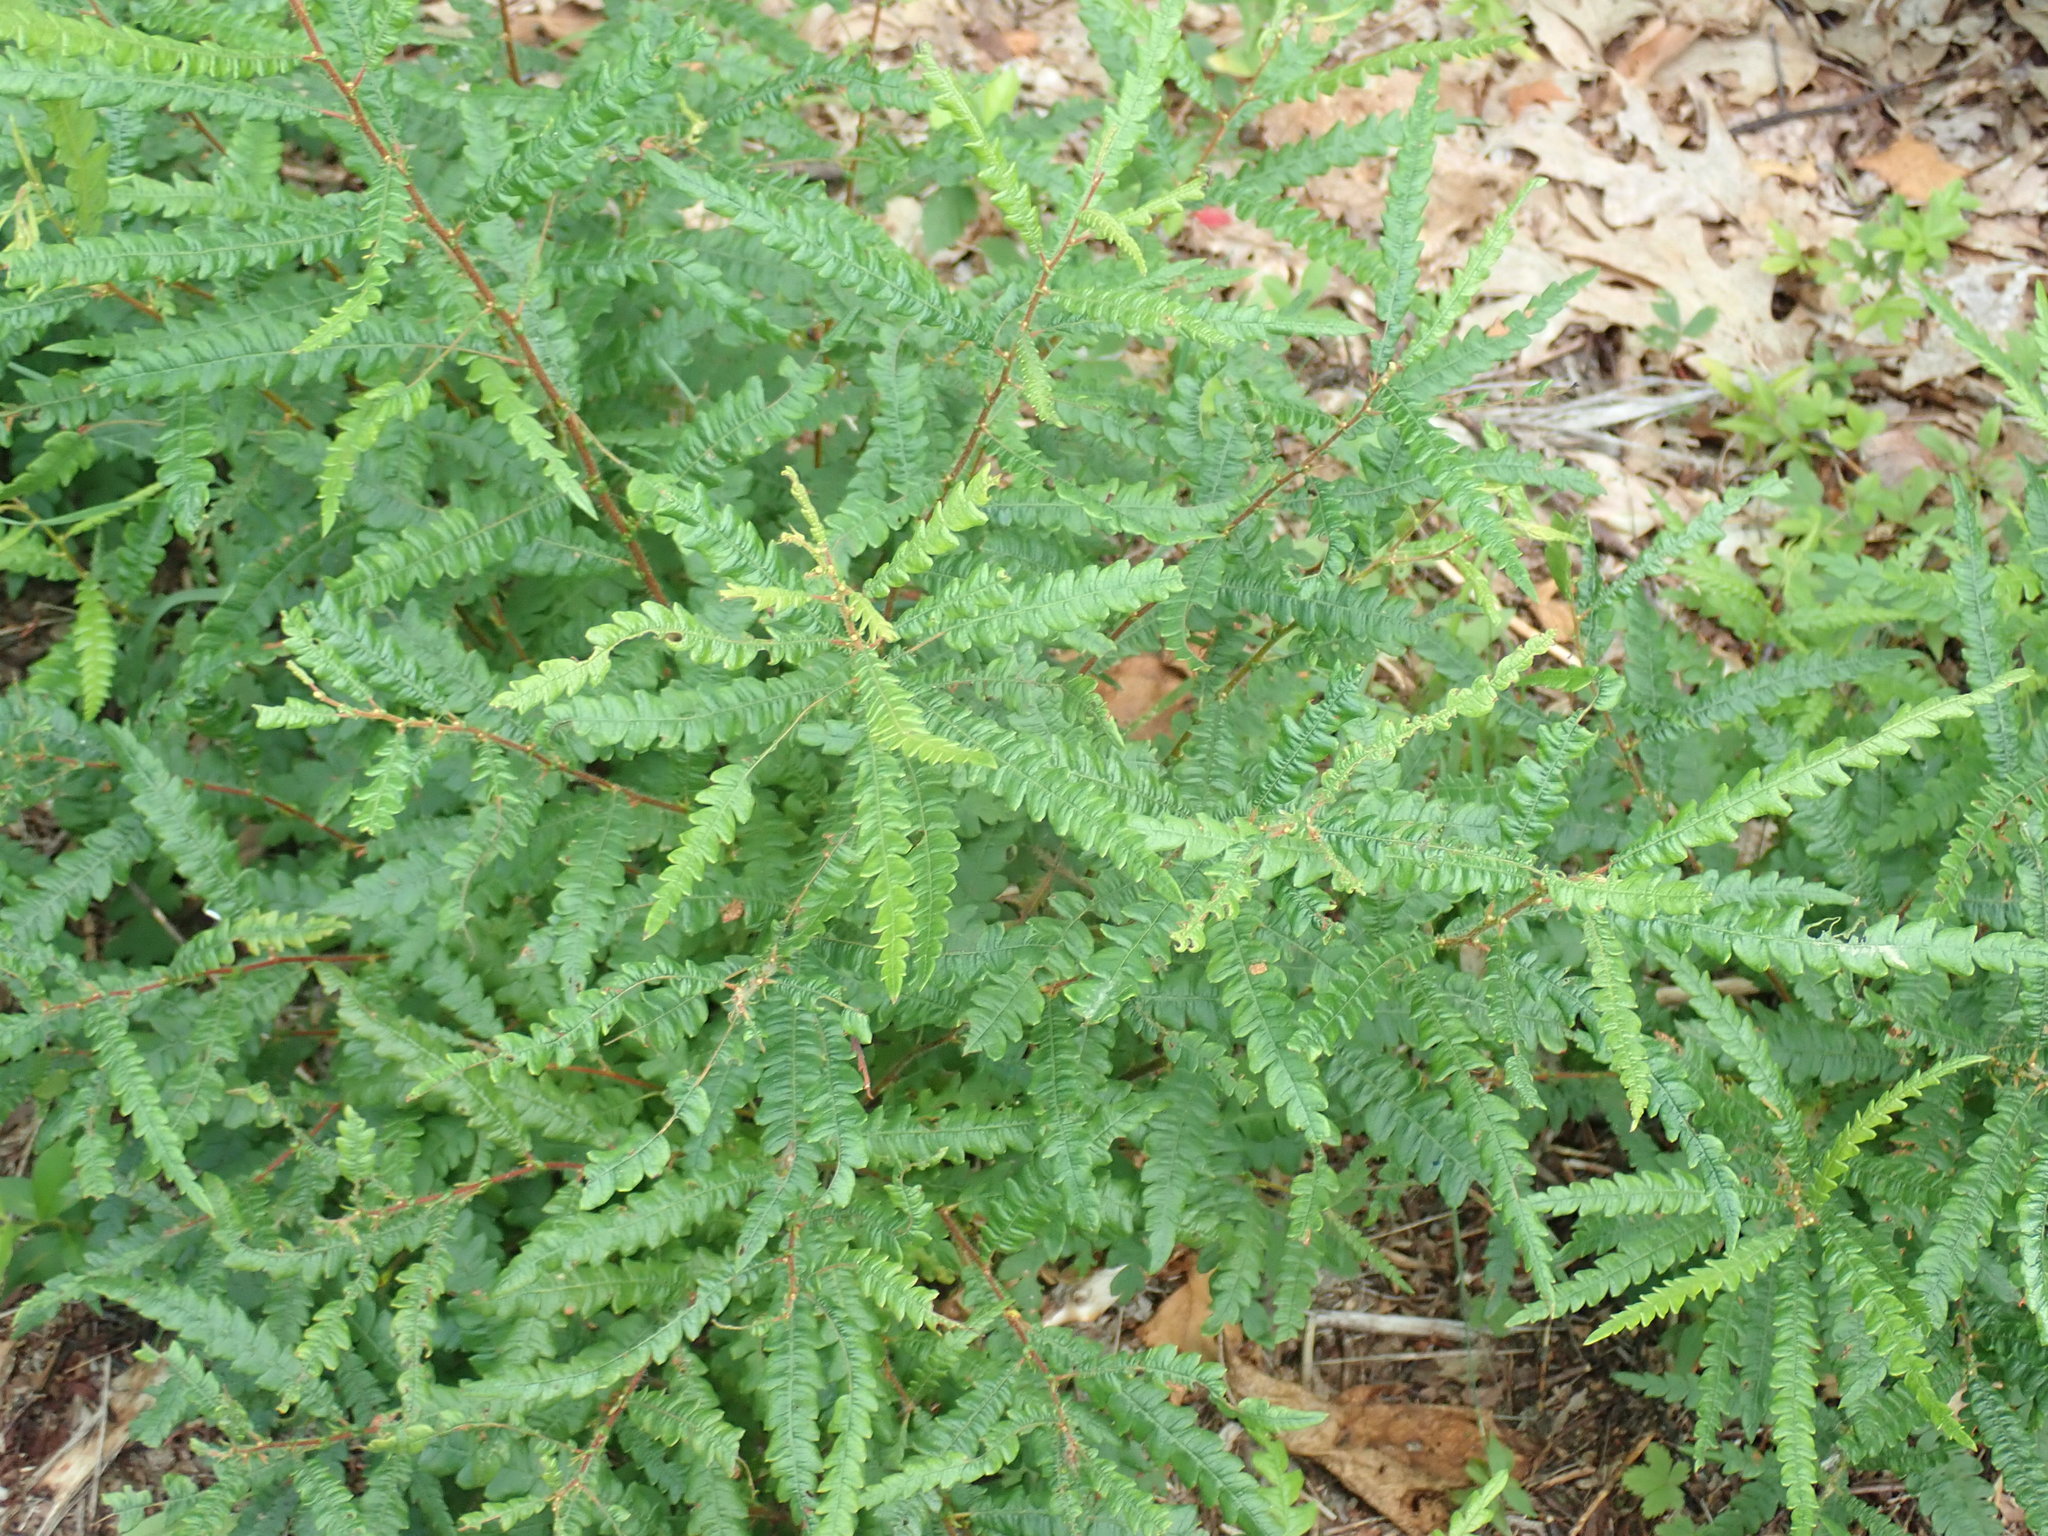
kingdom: Plantae
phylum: Tracheophyta
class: Magnoliopsida
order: Fagales
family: Myricaceae
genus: Comptonia
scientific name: Comptonia peregrina
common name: Sweet-fern
